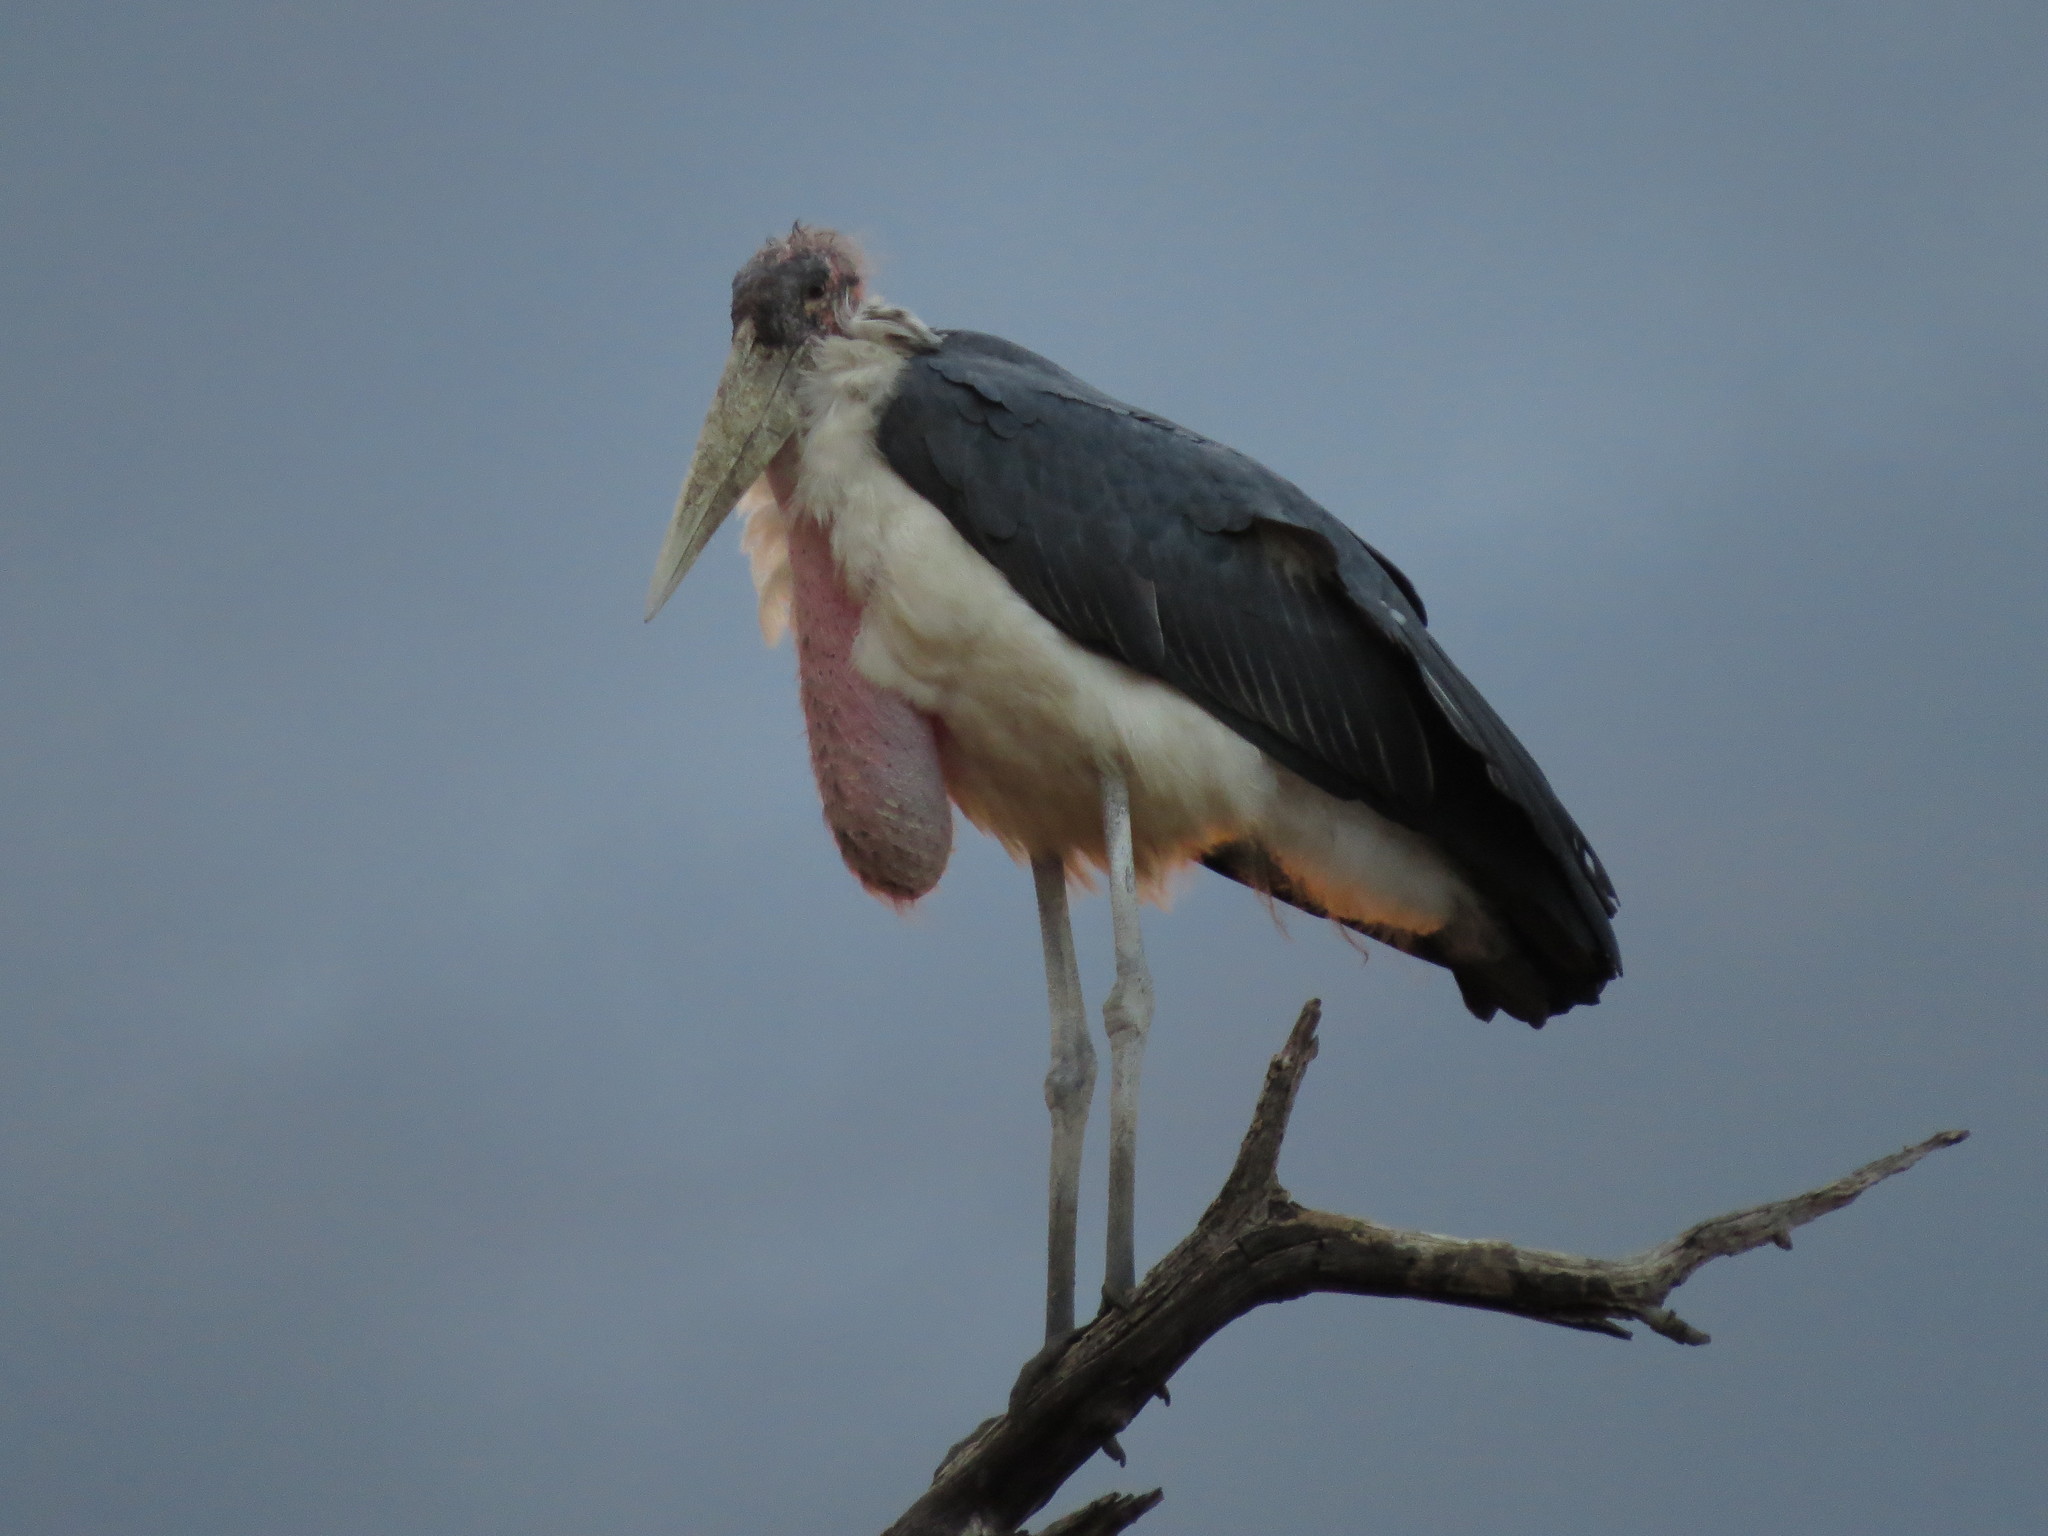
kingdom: Animalia
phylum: Chordata
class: Aves
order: Ciconiiformes
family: Ciconiidae
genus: Leptoptilos
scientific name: Leptoptilos crumenifer
